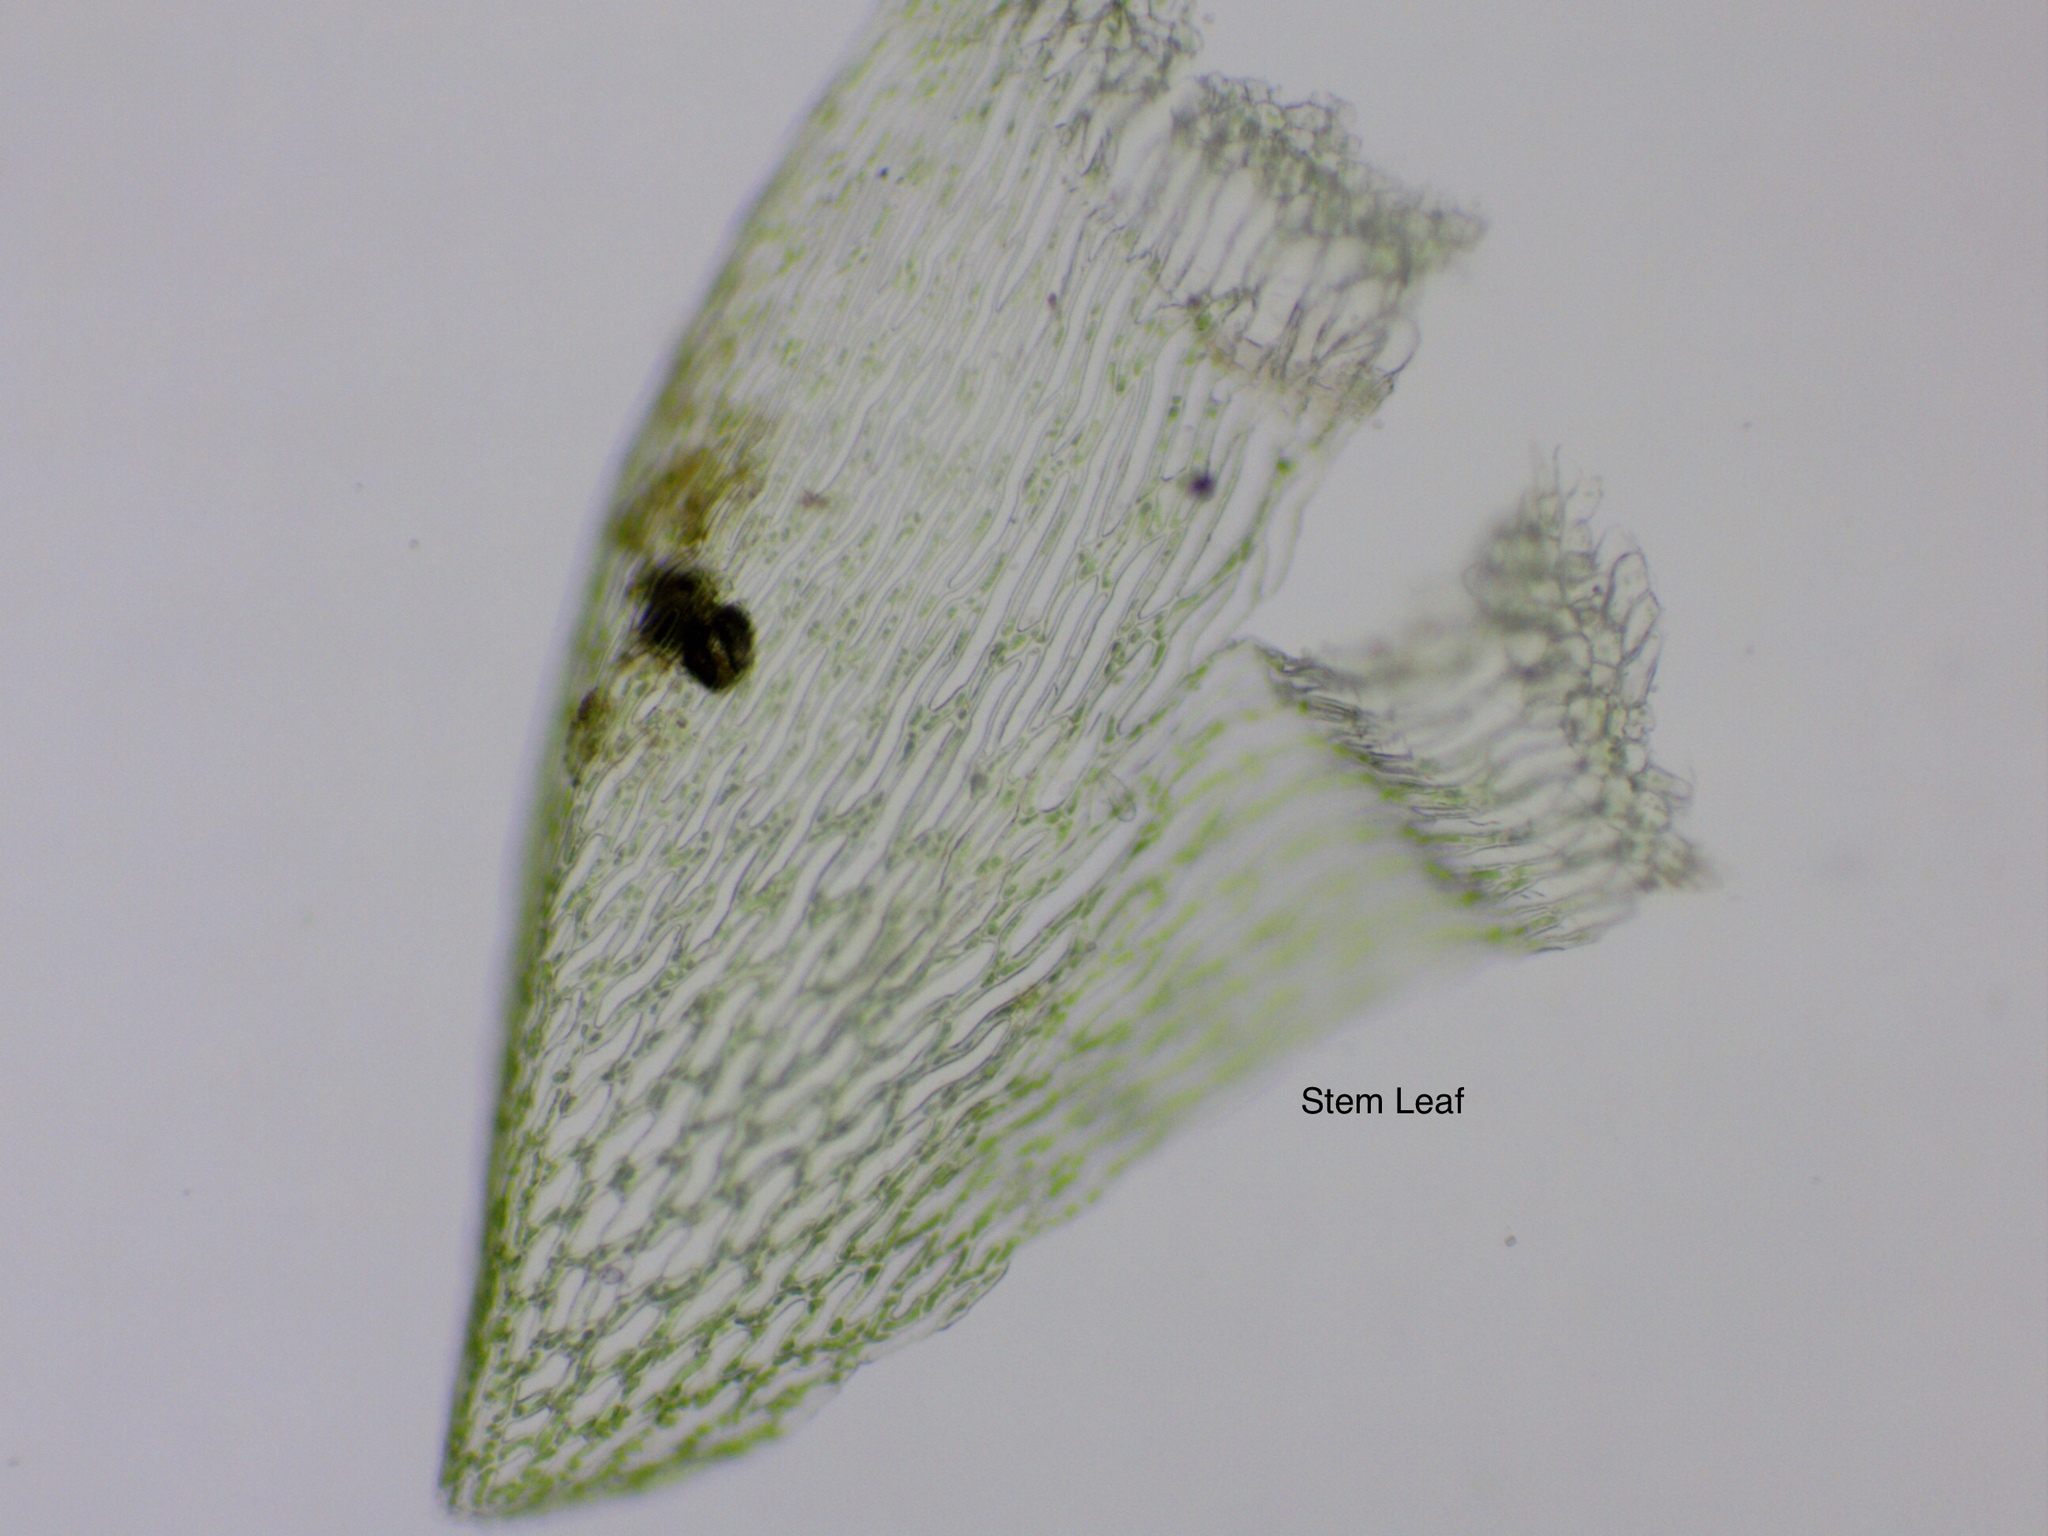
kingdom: Plantae
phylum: Bryophyta
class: Sphagnopsida
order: Sphagnales
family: Sphagnaceae
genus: Sphagnum
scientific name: Sphagnum fallax
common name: Flat-top peat moss
